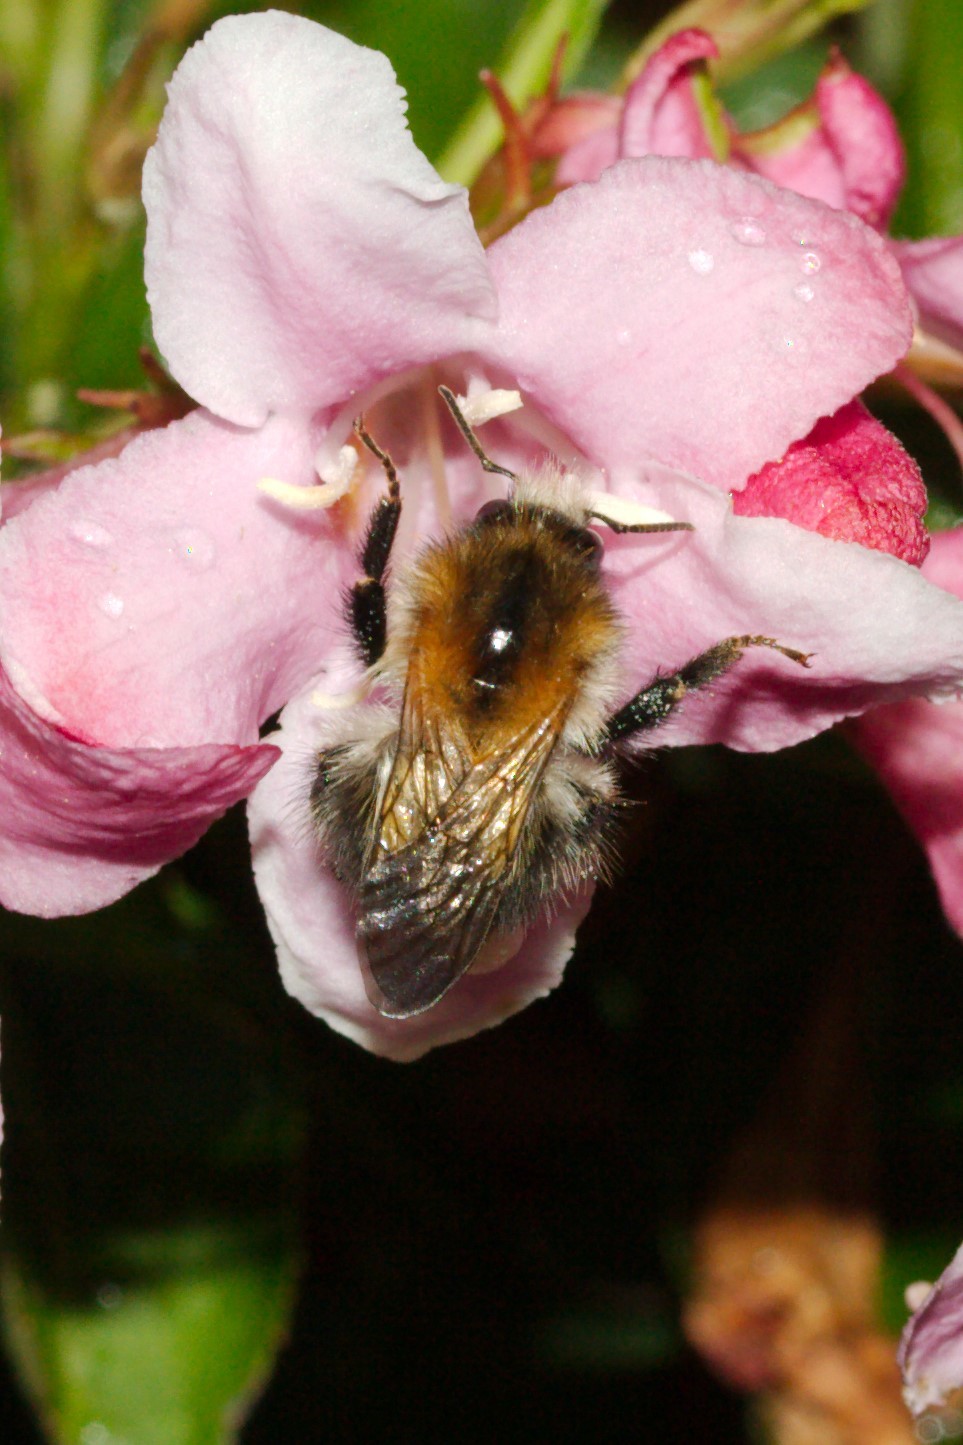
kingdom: Animalia
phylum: Arthropoda
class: Insecta
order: Hymenoptera
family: Apidae
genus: Bombus
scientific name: Bombus pascuorum
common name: Common carder bee
